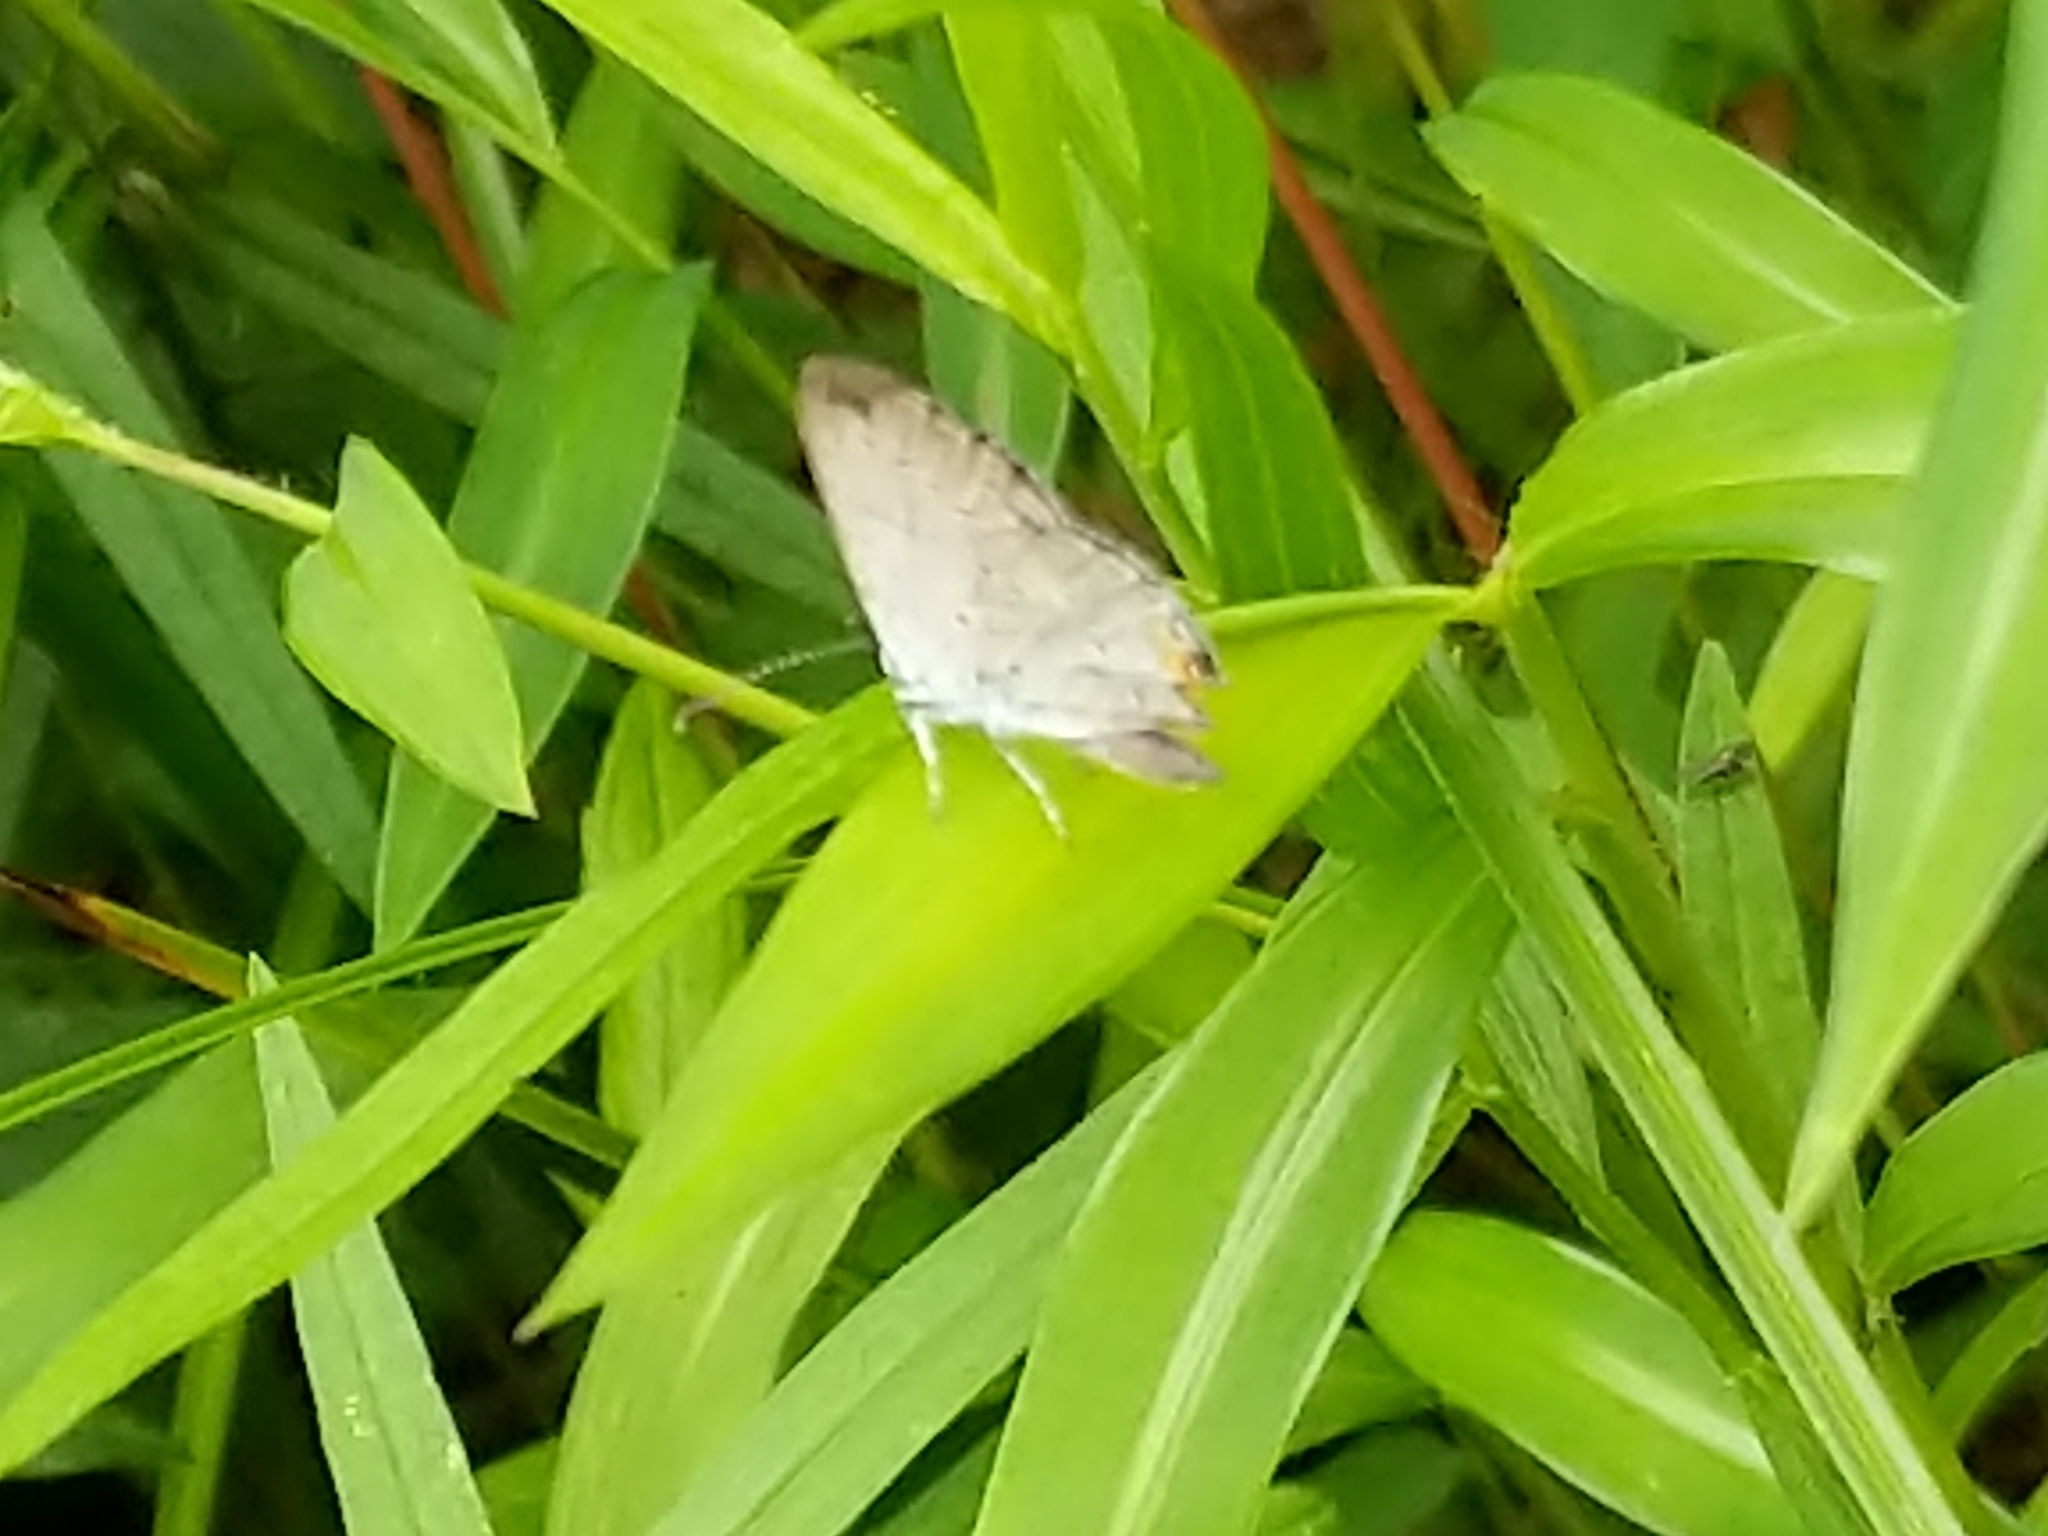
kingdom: Animalia
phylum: Arthropoda
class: Insecta
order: Lepidoptera
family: Lycaenidae
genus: Elkalyce
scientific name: Elkalyce comyntas
